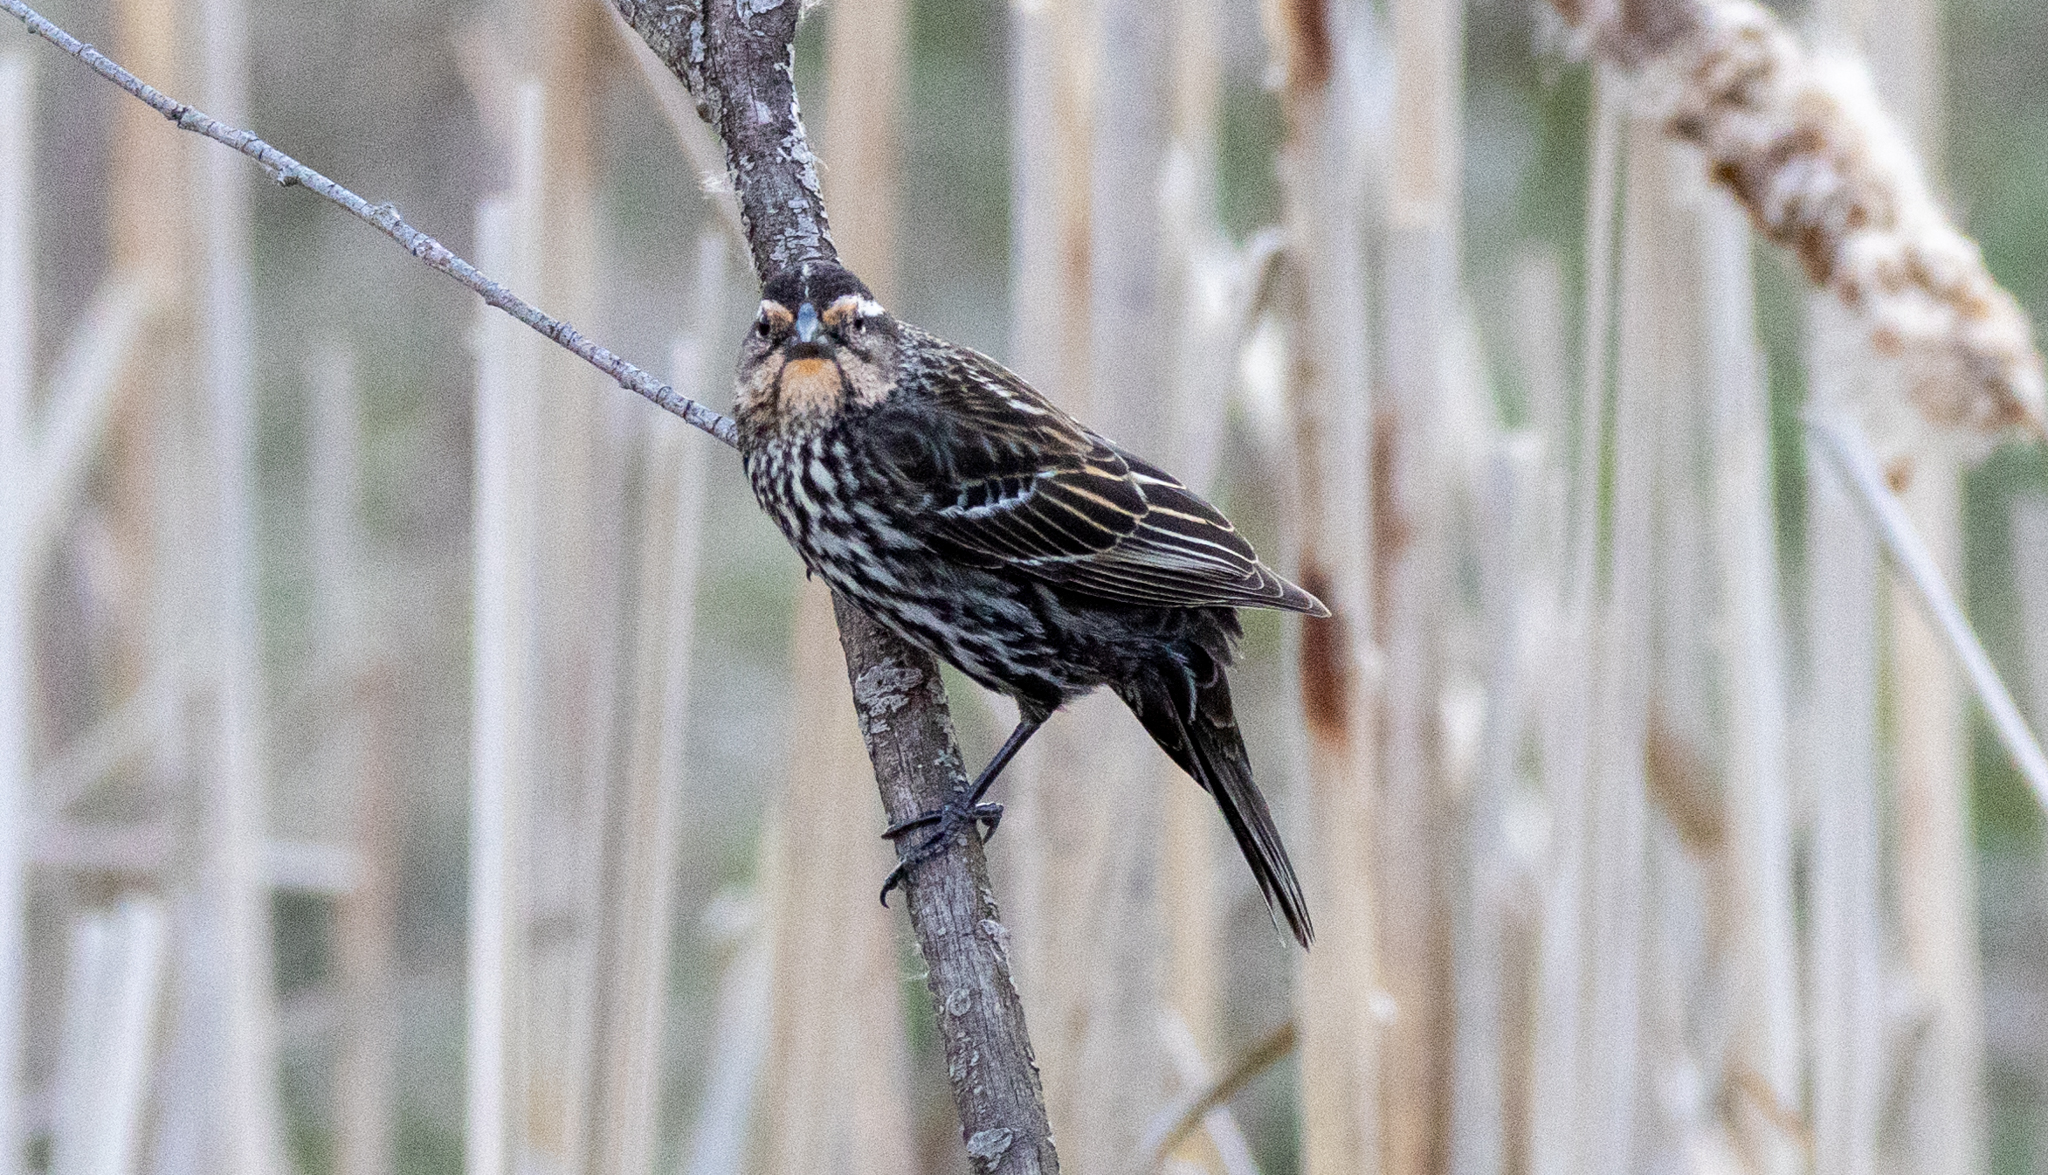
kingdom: Animalia
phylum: Chordata
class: Aves
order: Passeriformes
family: Icteridae
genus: Agelaius
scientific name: Agelaius phoeniceus
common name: Red-winged blackbird
